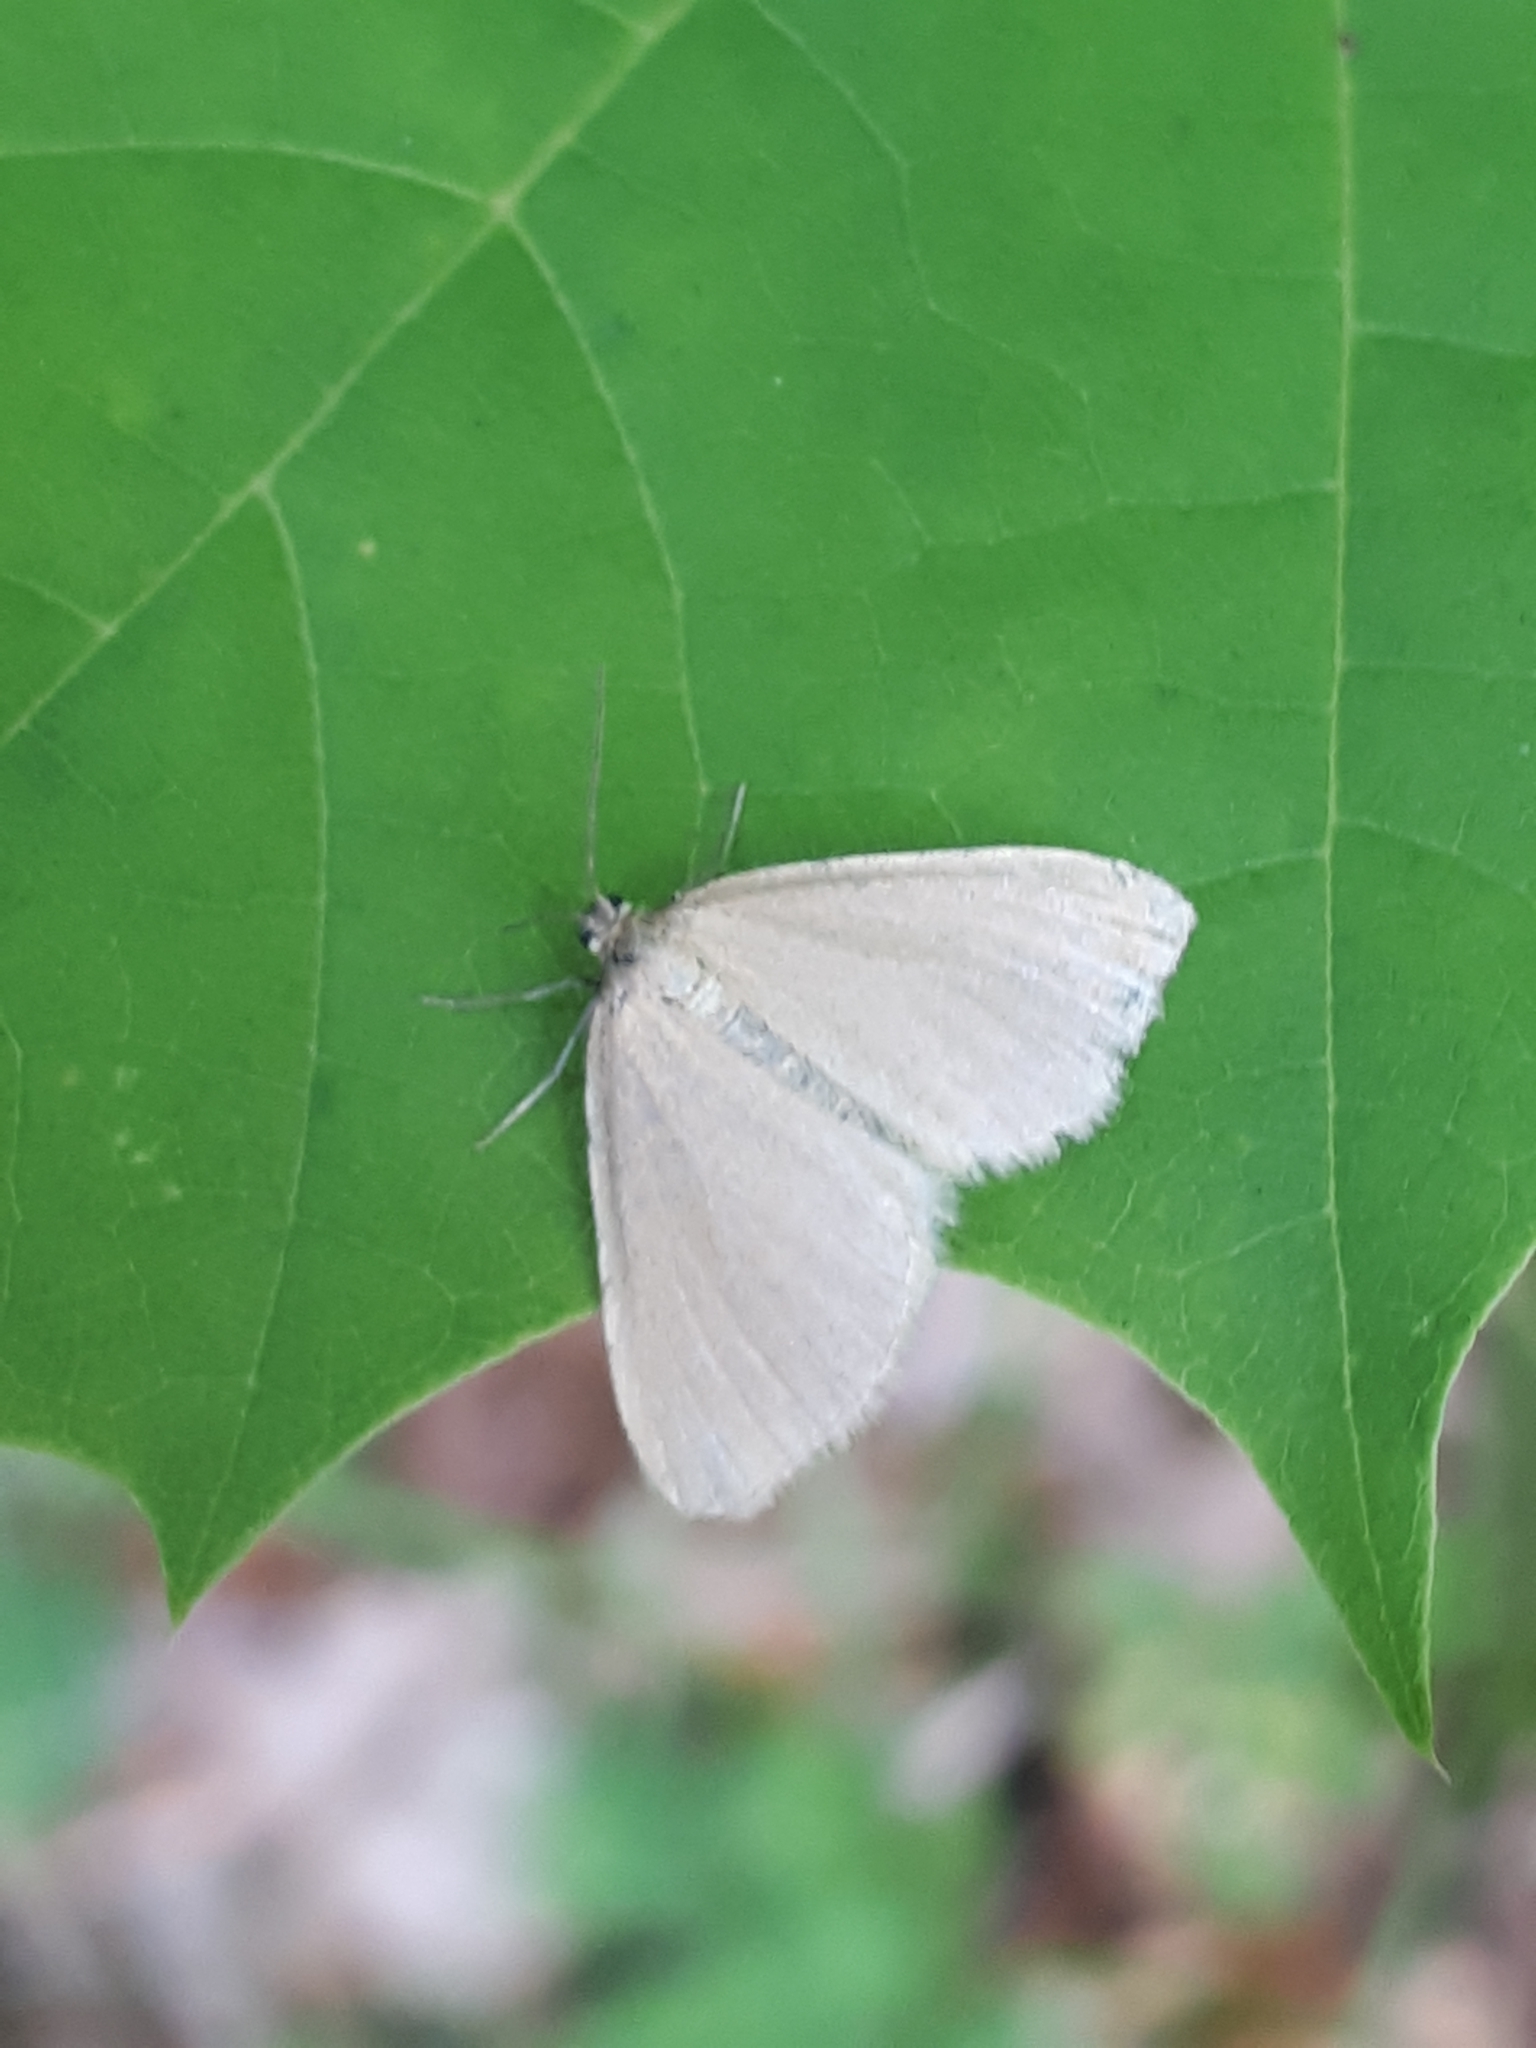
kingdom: Animalia
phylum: Arthropoda
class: Insecta
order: Lepidoptera
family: Geometridae
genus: Minoa
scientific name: Minoa murinata
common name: Drab looper
